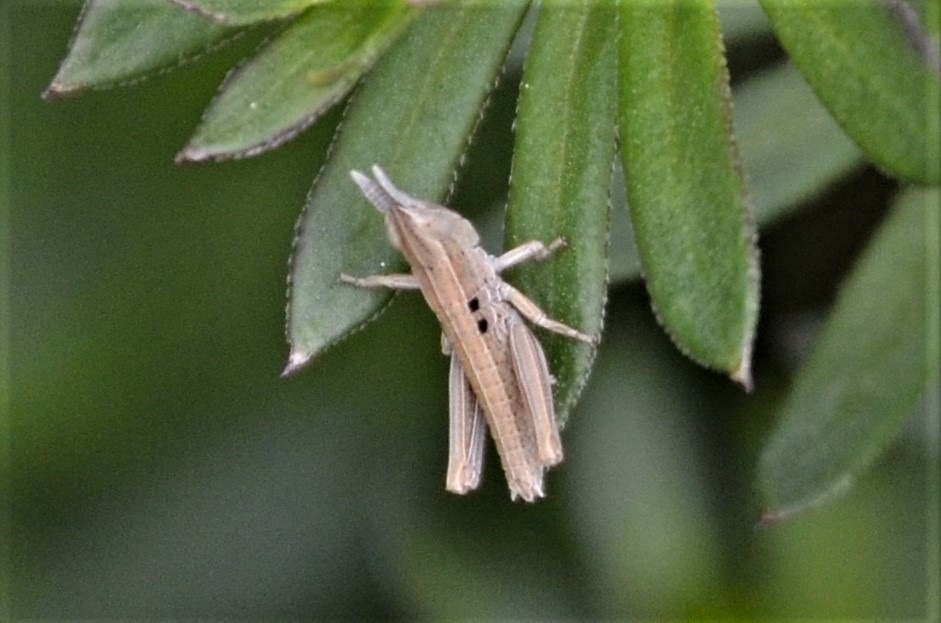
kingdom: Animalia
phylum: Arthropoda
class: Insecta
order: Orthoptera
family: Acrididae
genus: Euthystira
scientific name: Euthystira brachyptera
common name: Small gold grasshopper
